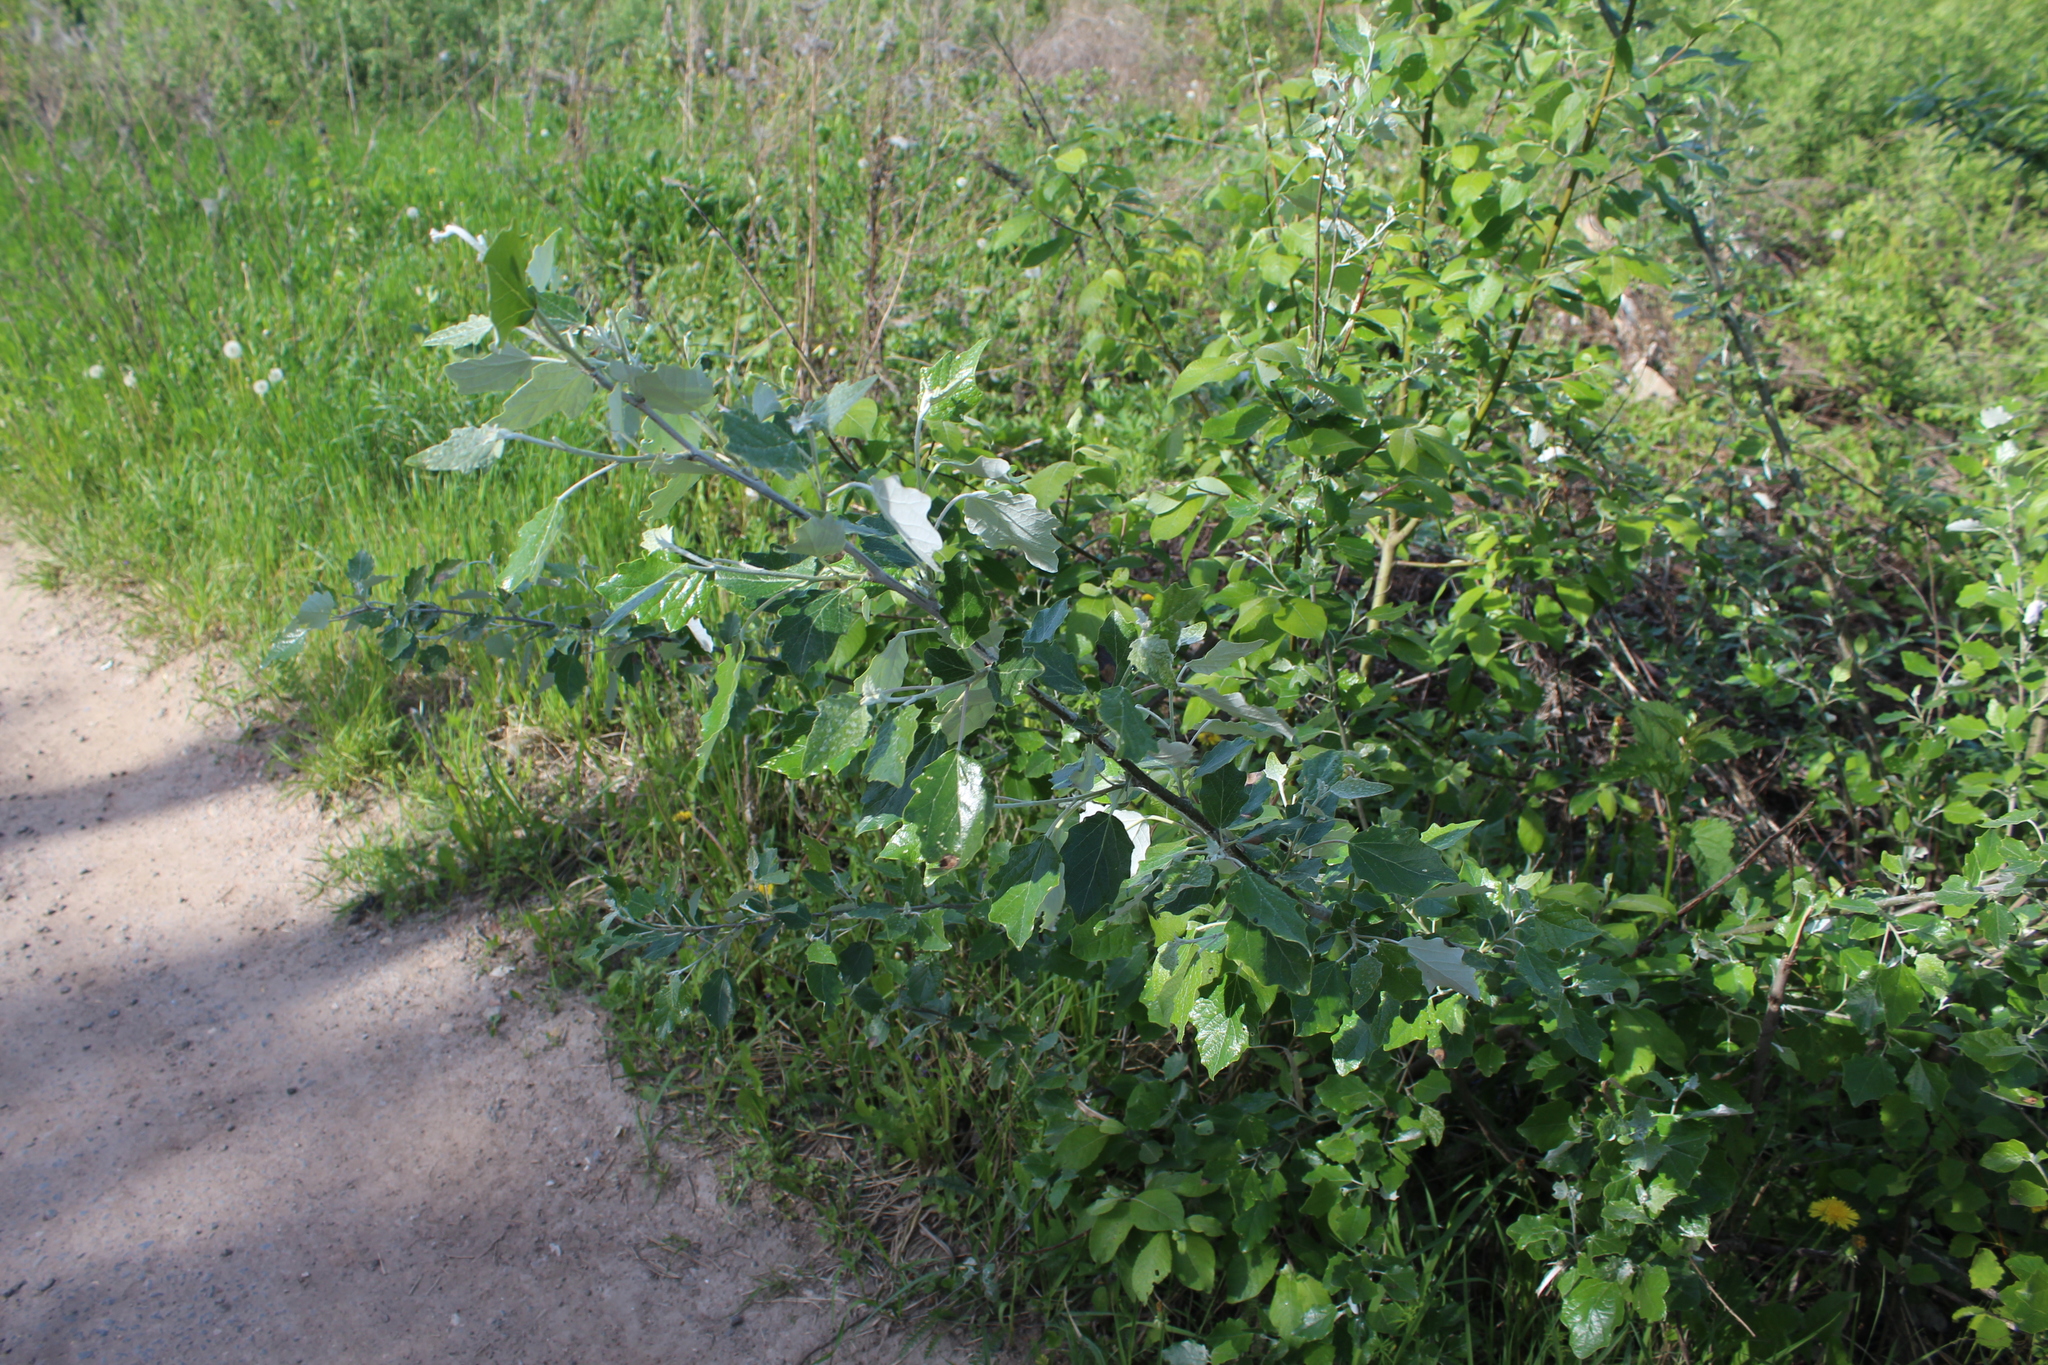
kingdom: Plantae
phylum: Tracheophyta
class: Magnoliopsida
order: Malpighiales
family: Salicaceae
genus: Populus
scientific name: Populus alba
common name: White poplar
